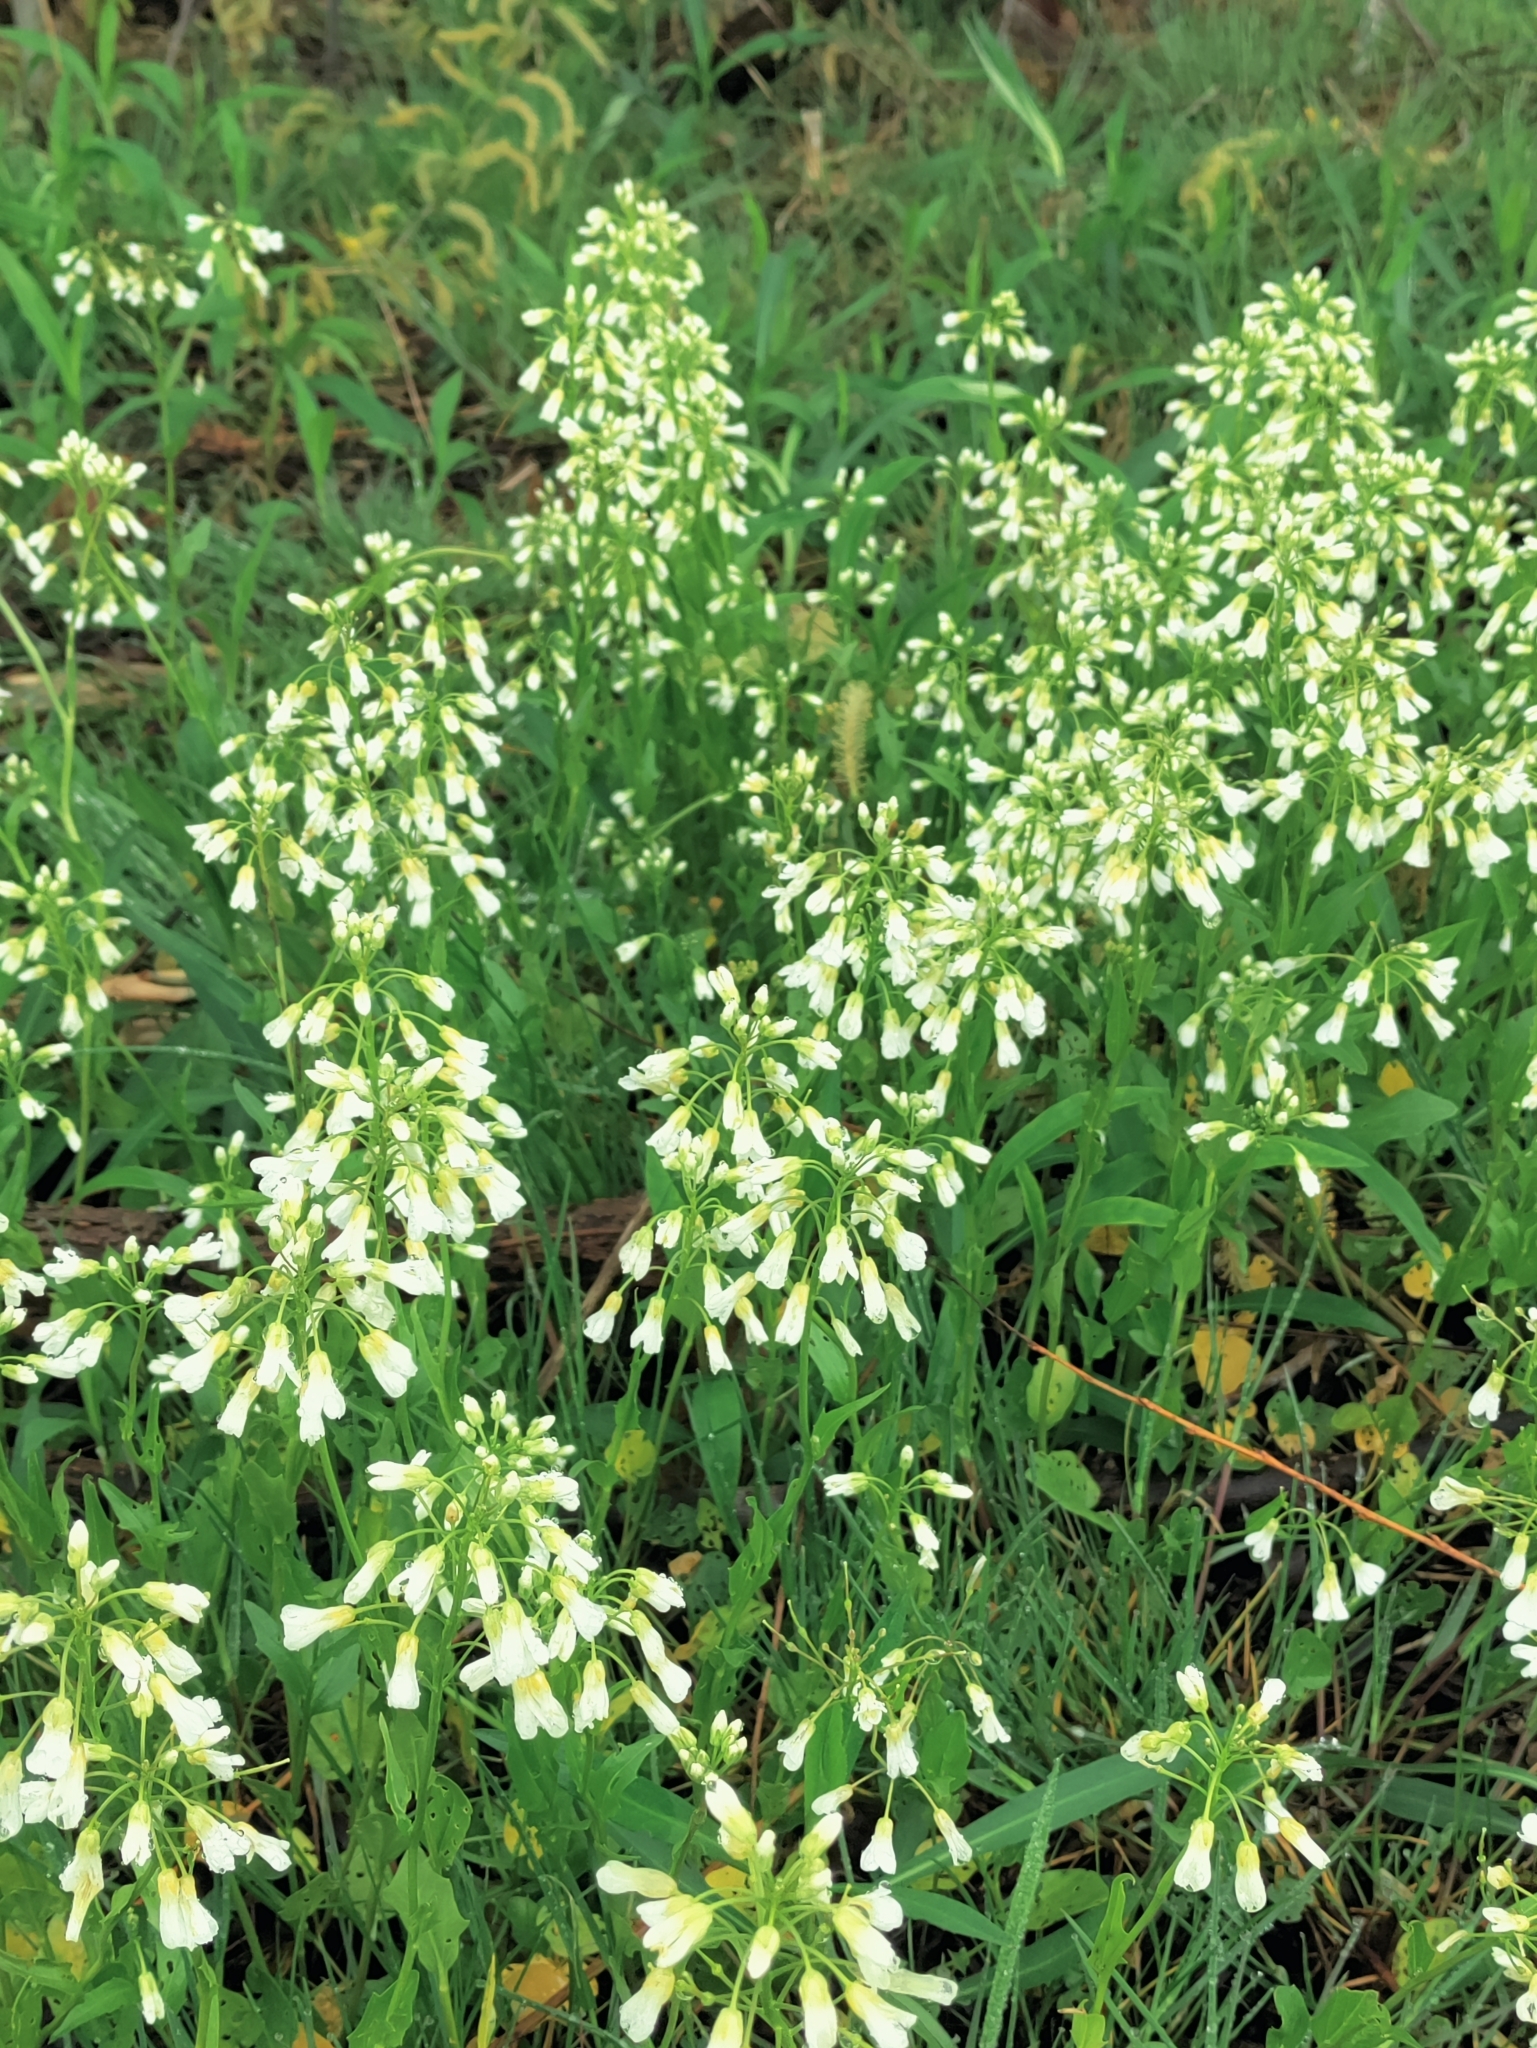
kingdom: Plantae
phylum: Tracheophyta
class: Magnoliopsida
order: Brassicales
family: Brassicaceae
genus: Cardamine
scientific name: Cardamine bulbosa
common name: Spring cress
